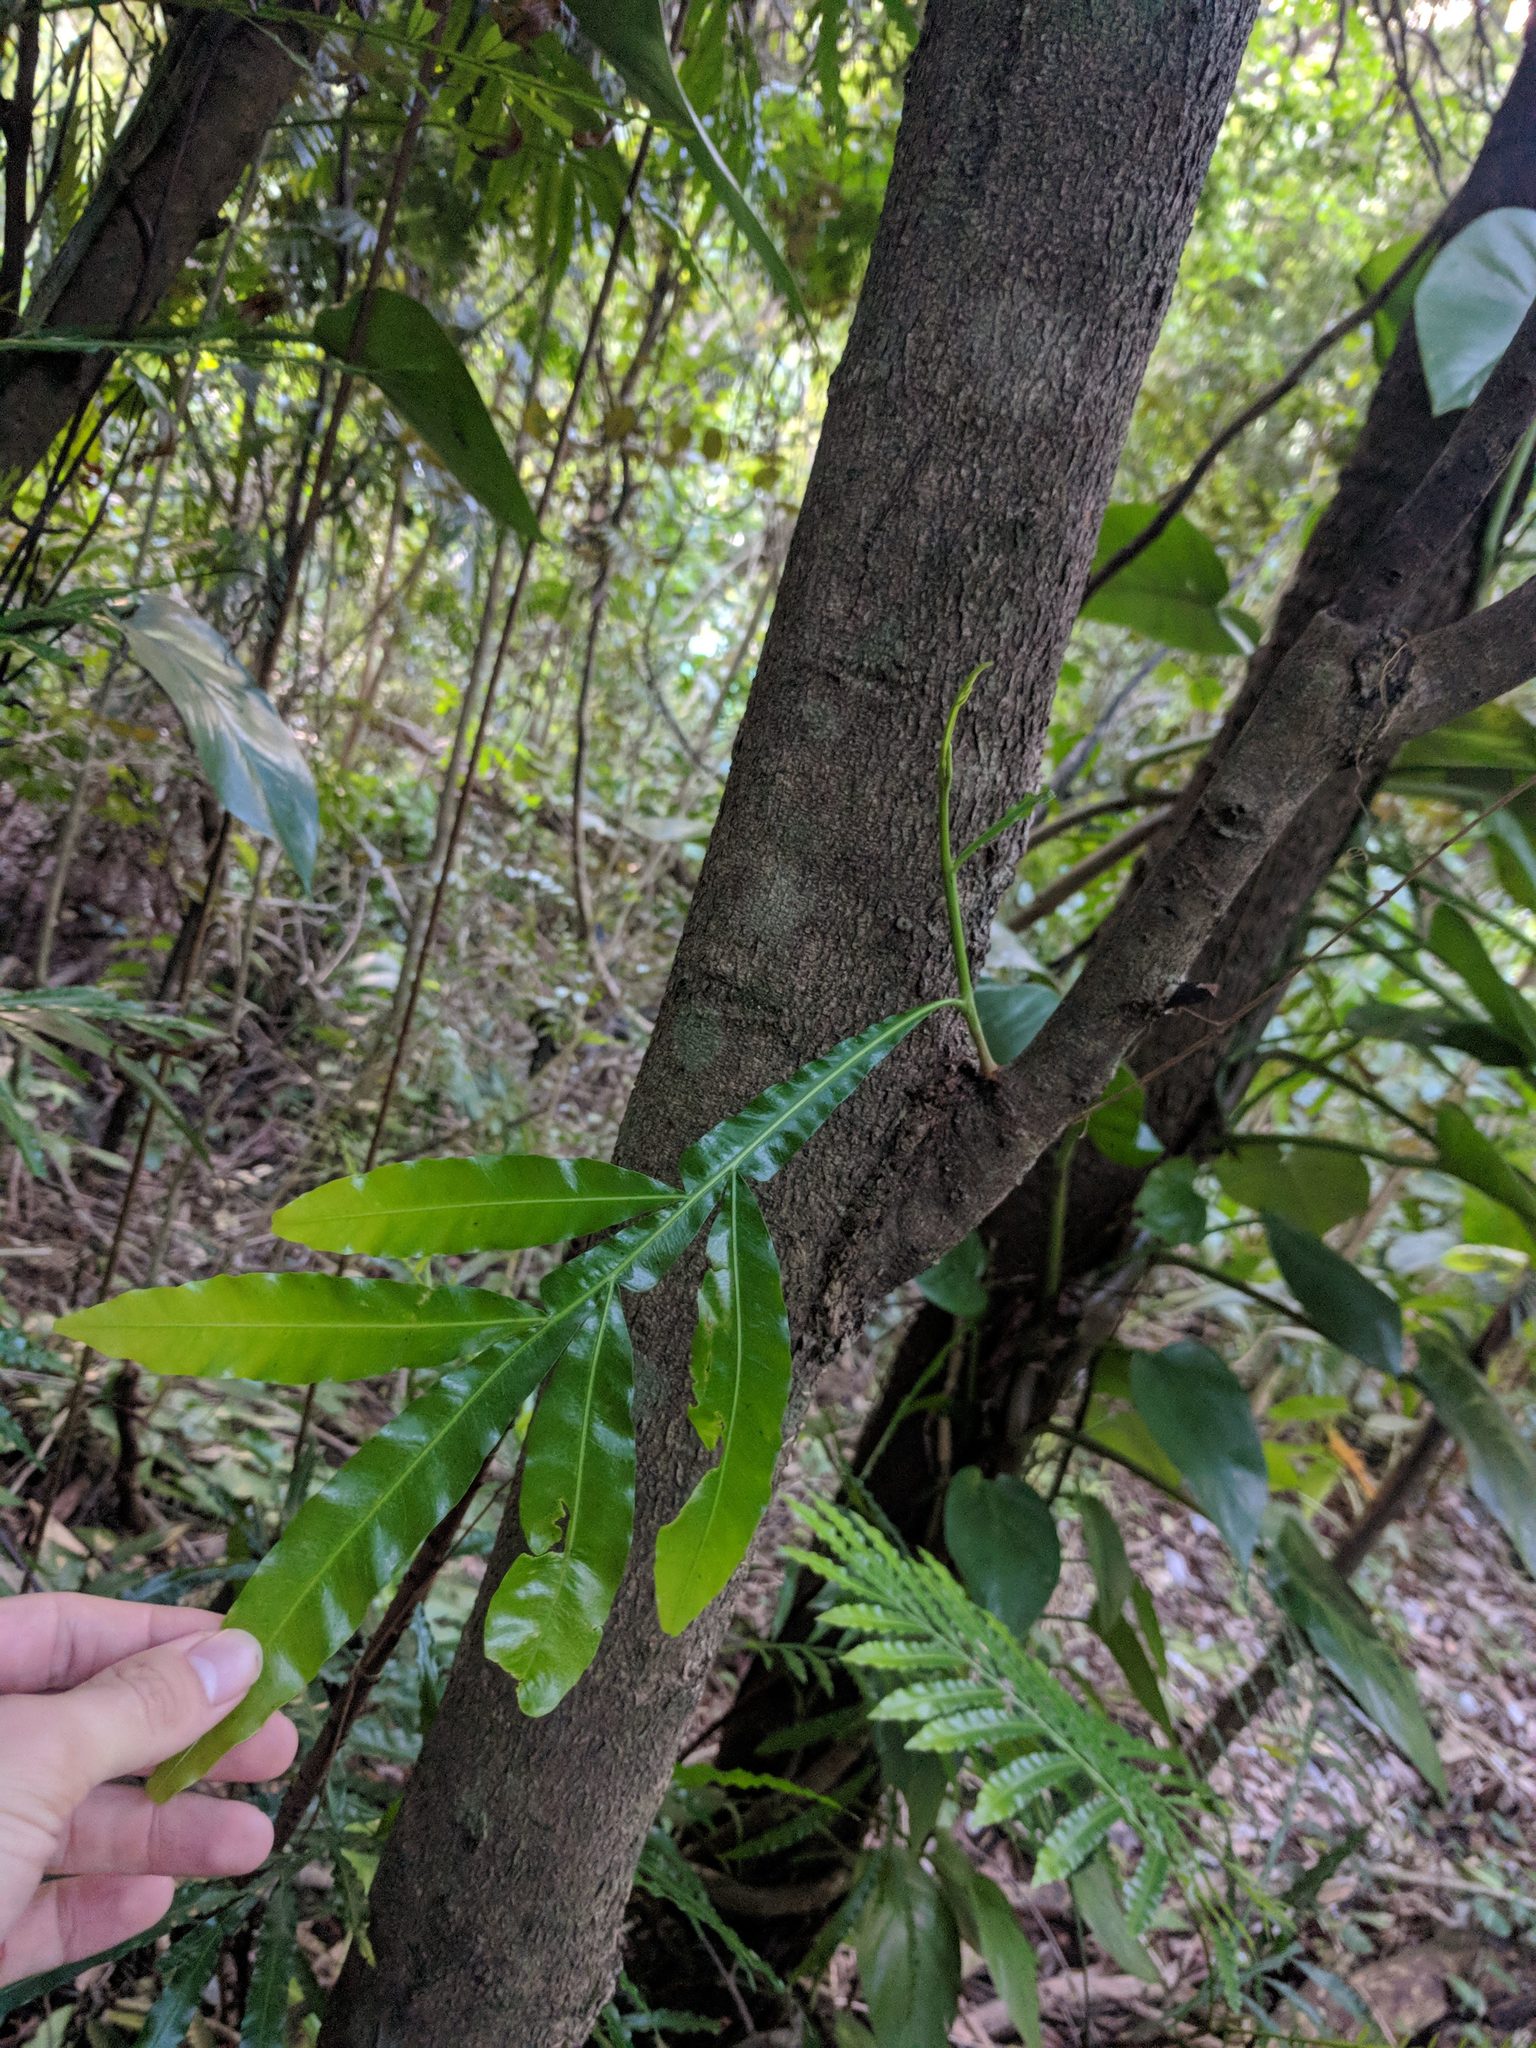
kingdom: Plantae
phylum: Tracheophyta
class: Magnoliopsida
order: Sapindales
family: Sapindaceae
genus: Filicium
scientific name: Filicium decipiens
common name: Ferntree
